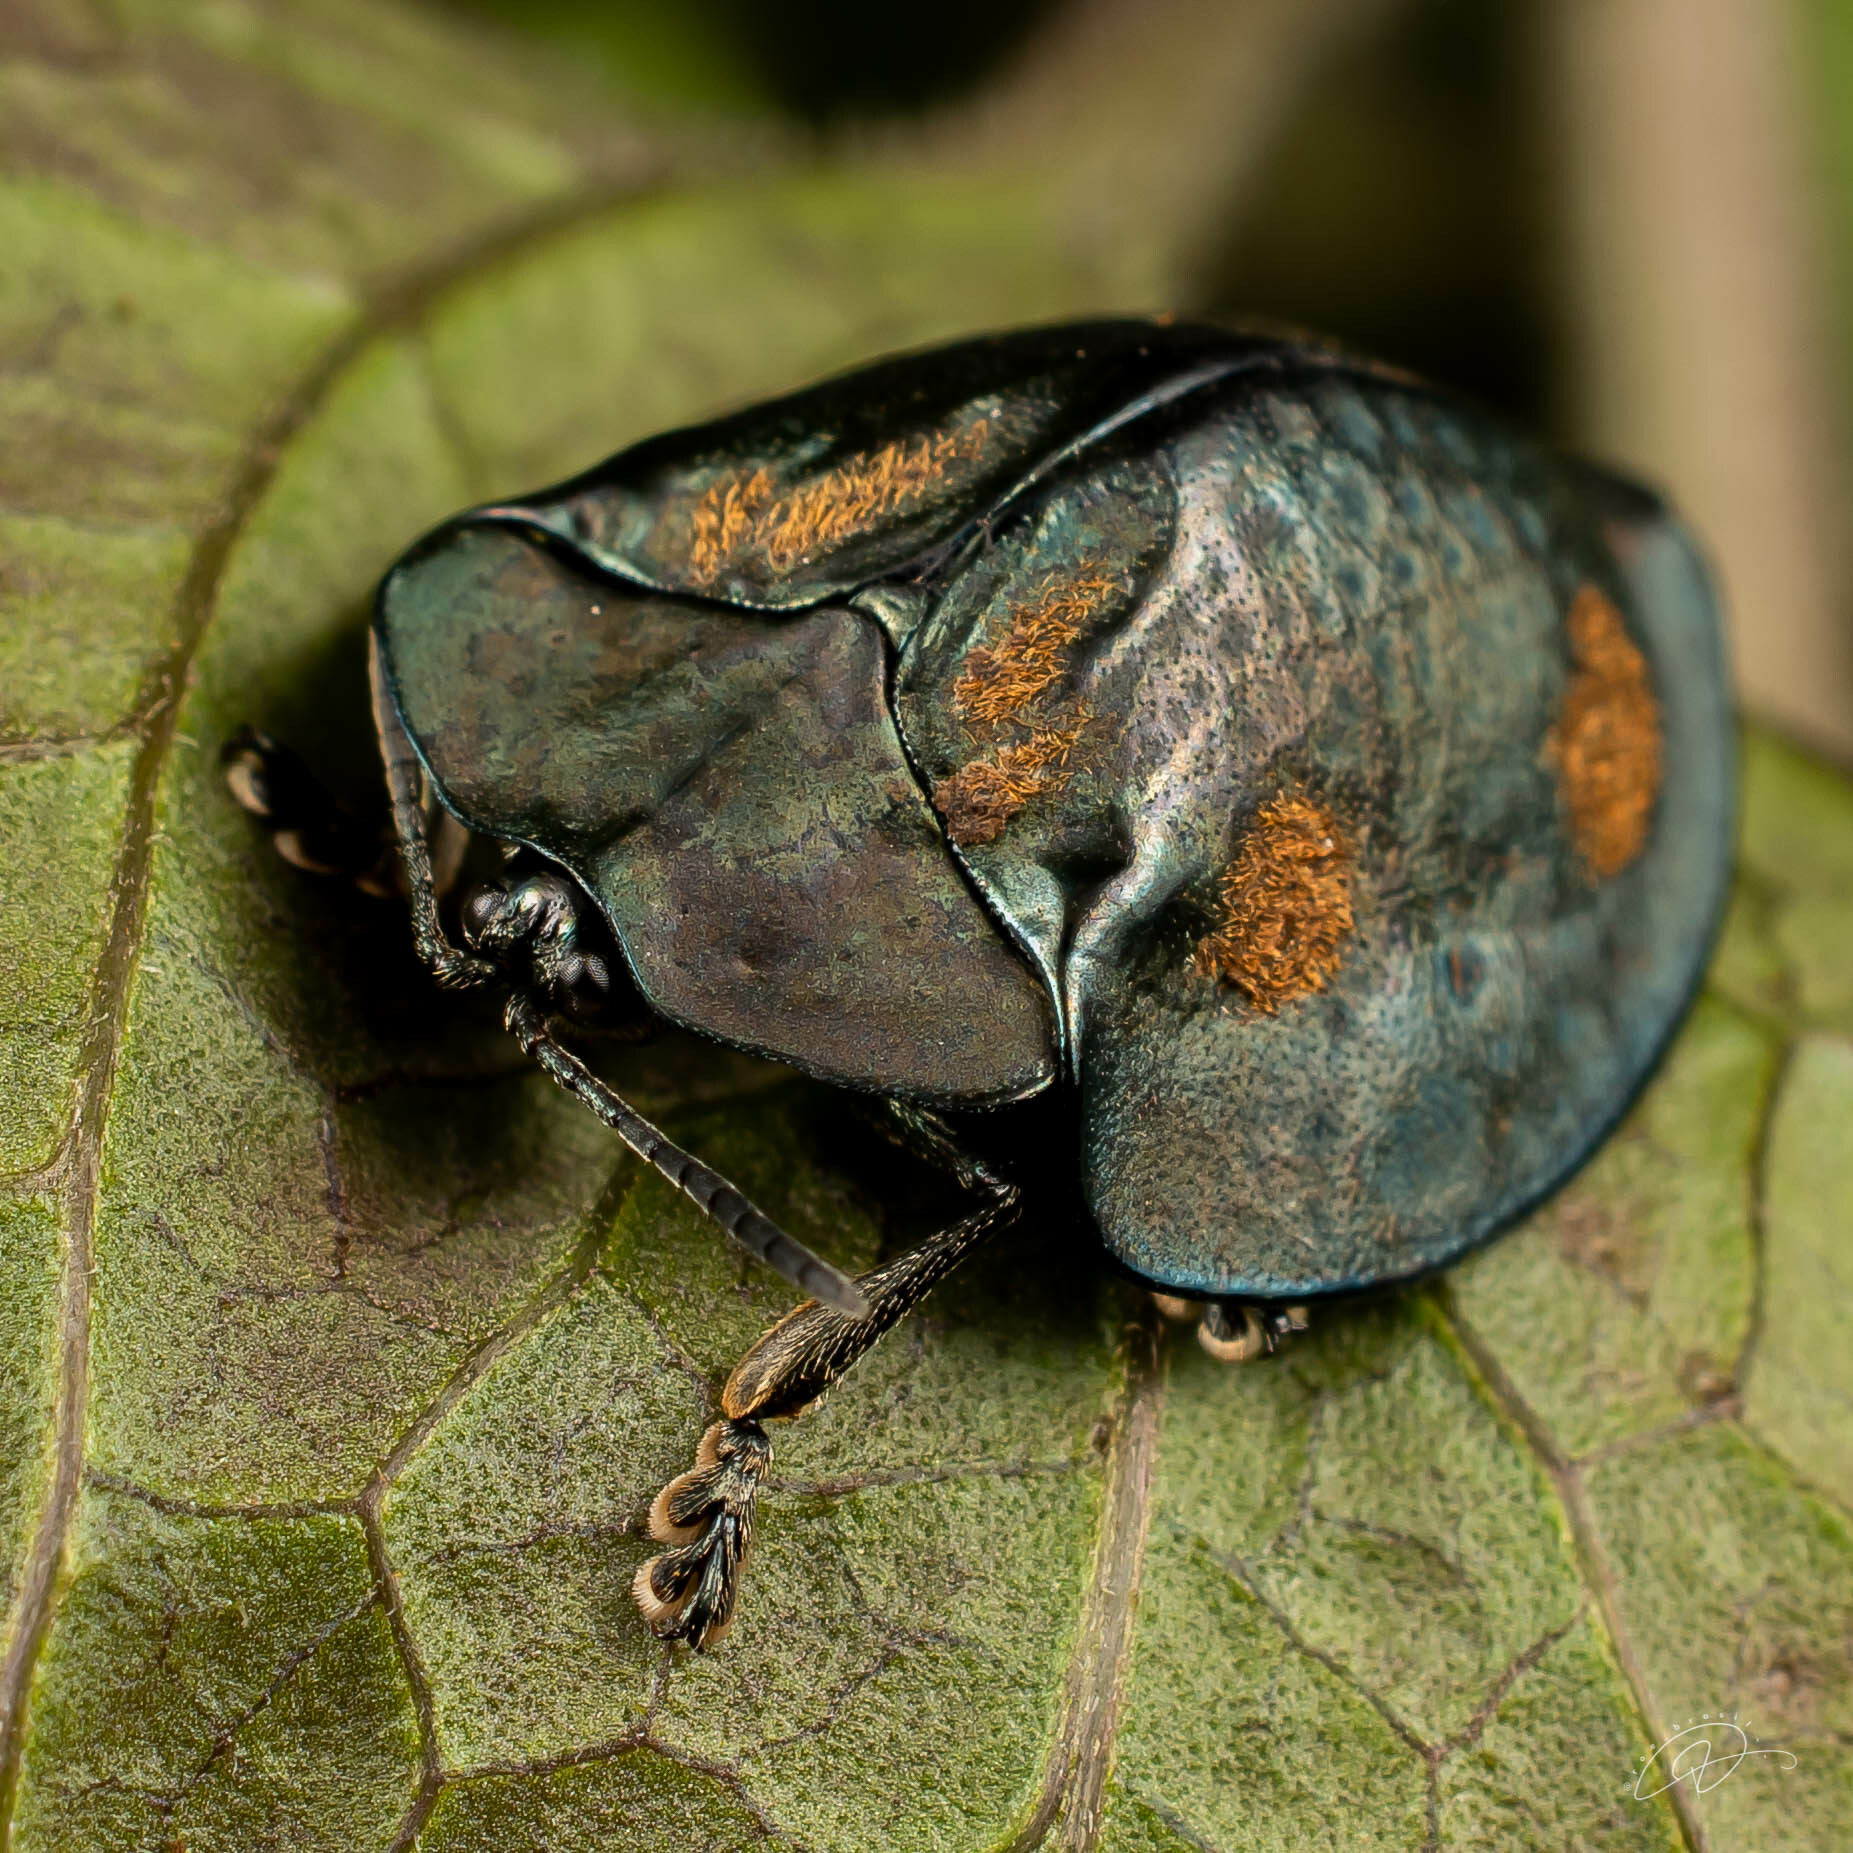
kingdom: Animalia
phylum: Arthropoda
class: Insecta
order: Coleoptera
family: Chrysomelidae
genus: Stolas
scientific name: Stolas impluviata
